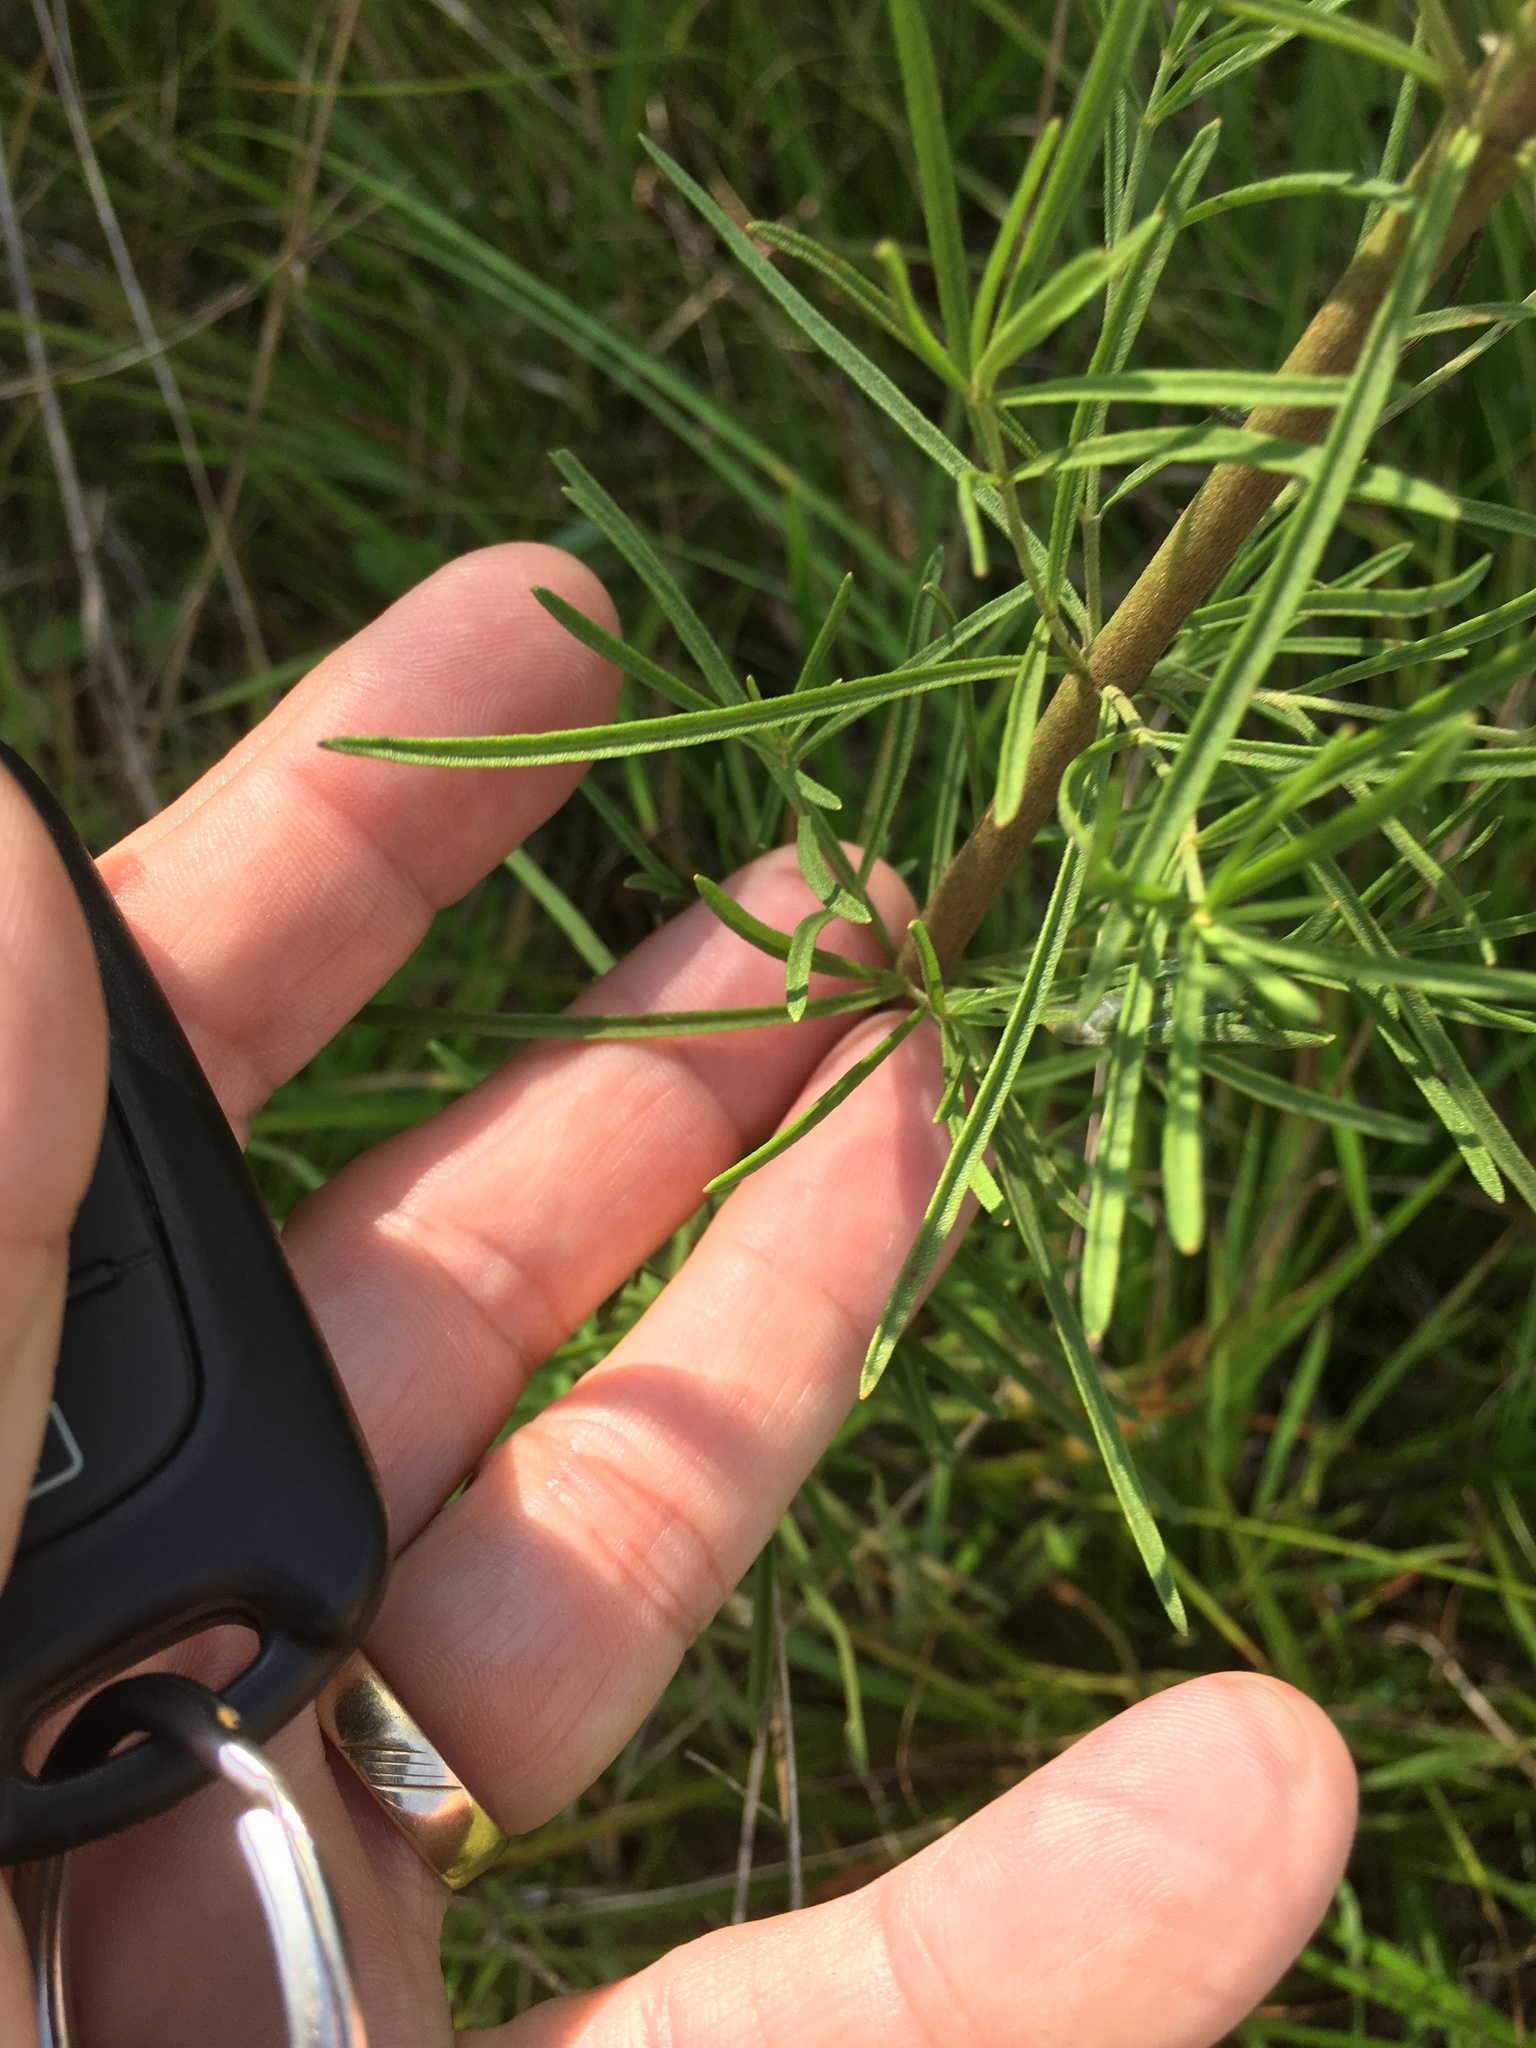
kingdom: Plantae
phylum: Tracheophyta
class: Magnoliopsida
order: Asterales
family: Asteraceae
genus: Eupatorium
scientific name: Eupatorium hyssopifolium
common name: Hyssop-leaf thoroughwort
